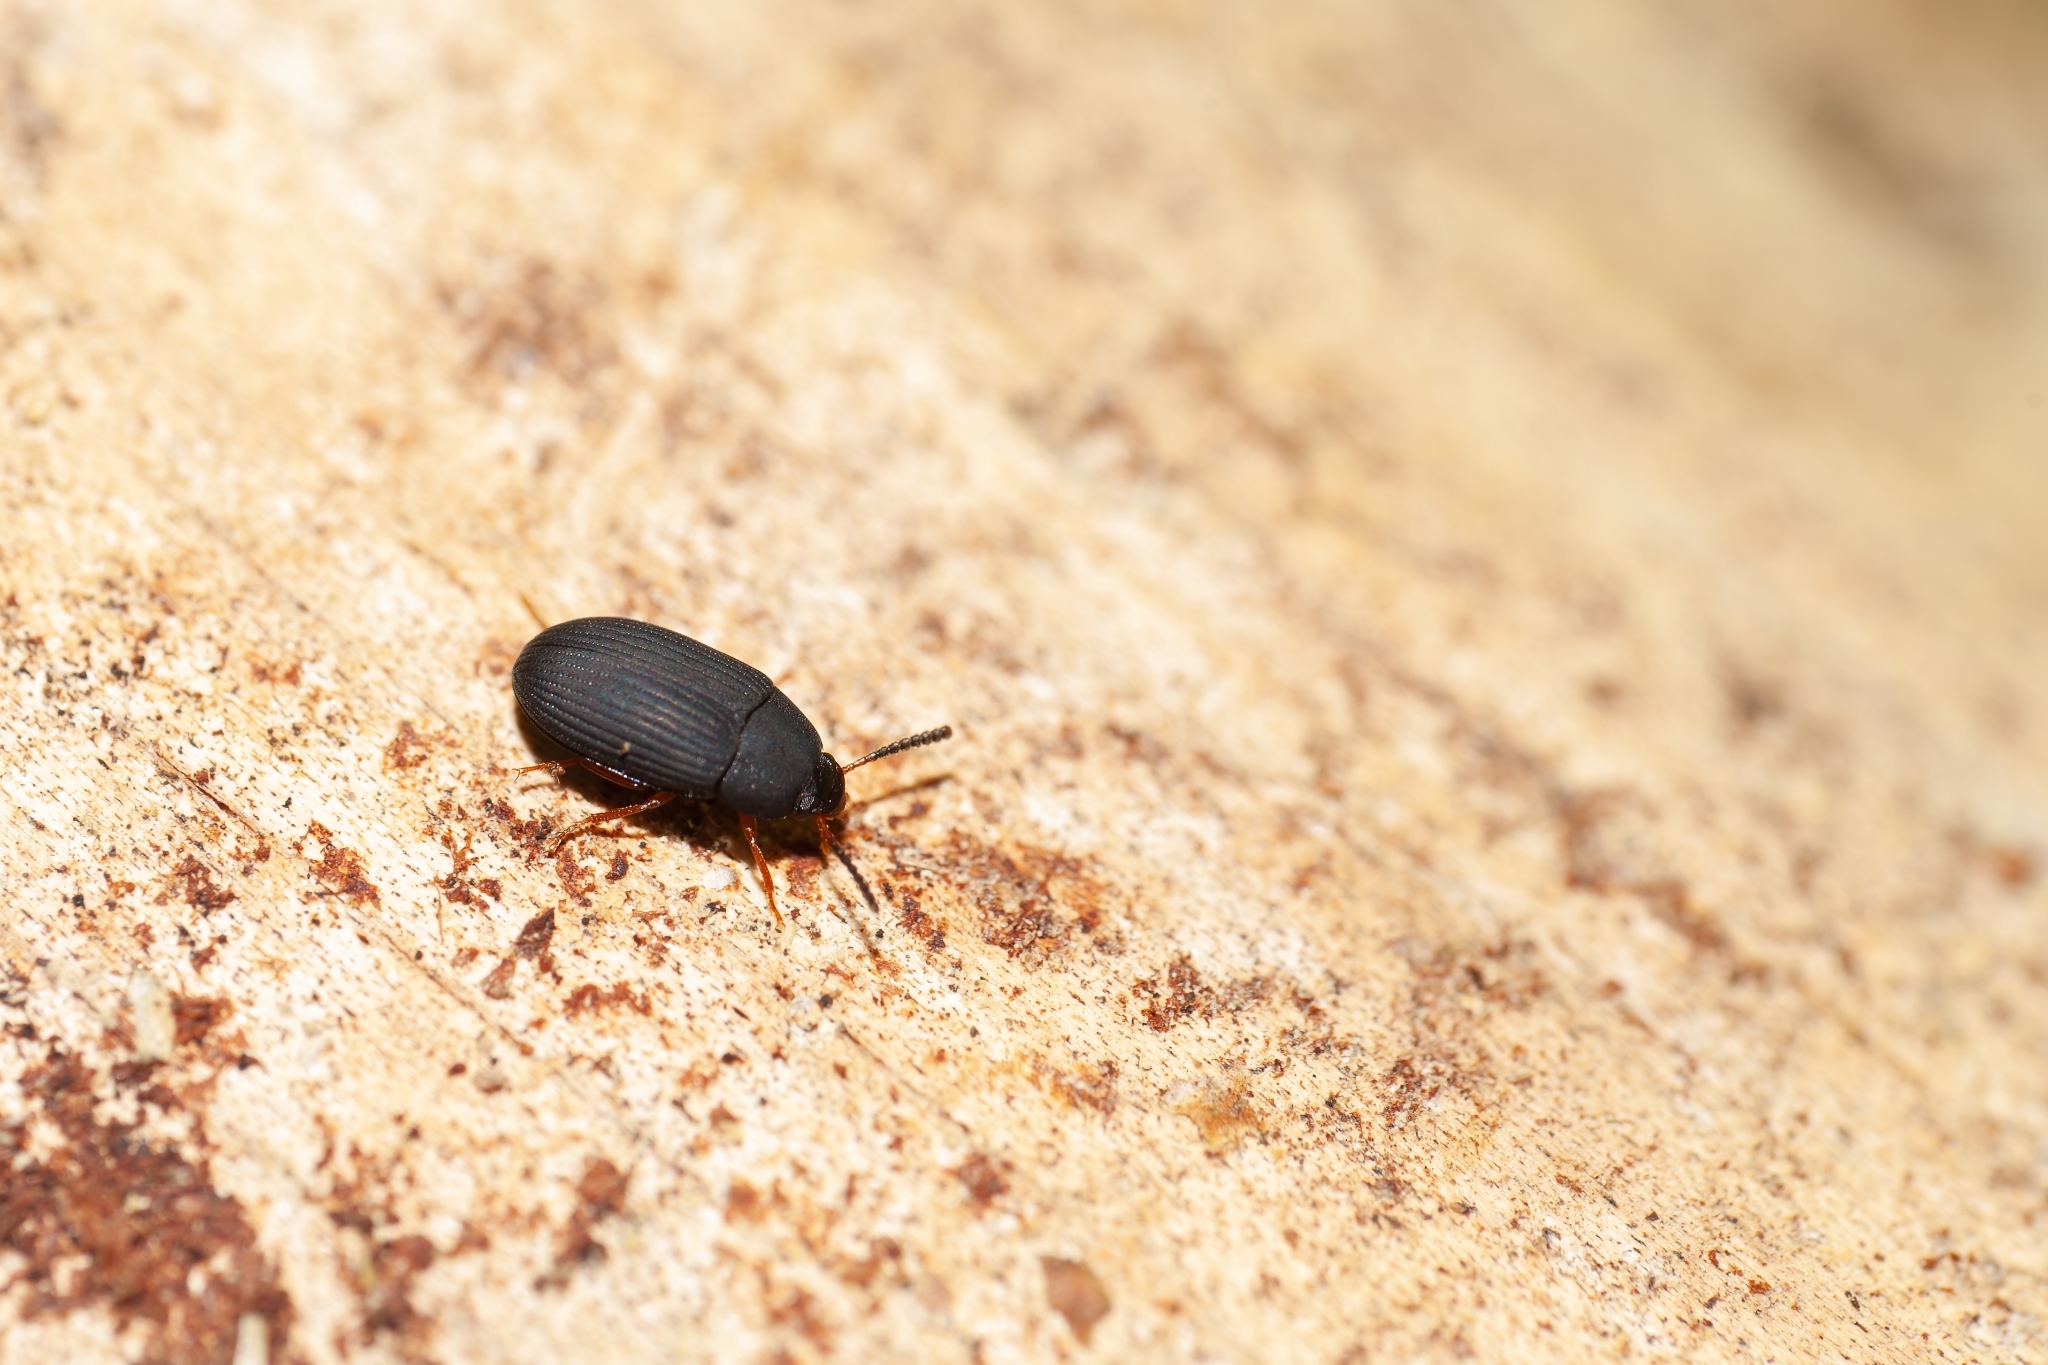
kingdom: Animalia
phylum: Arthropoda
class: Insecta
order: Coleoptera
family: Tenebrionidae
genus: Platydema
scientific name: Platydema flavipes
